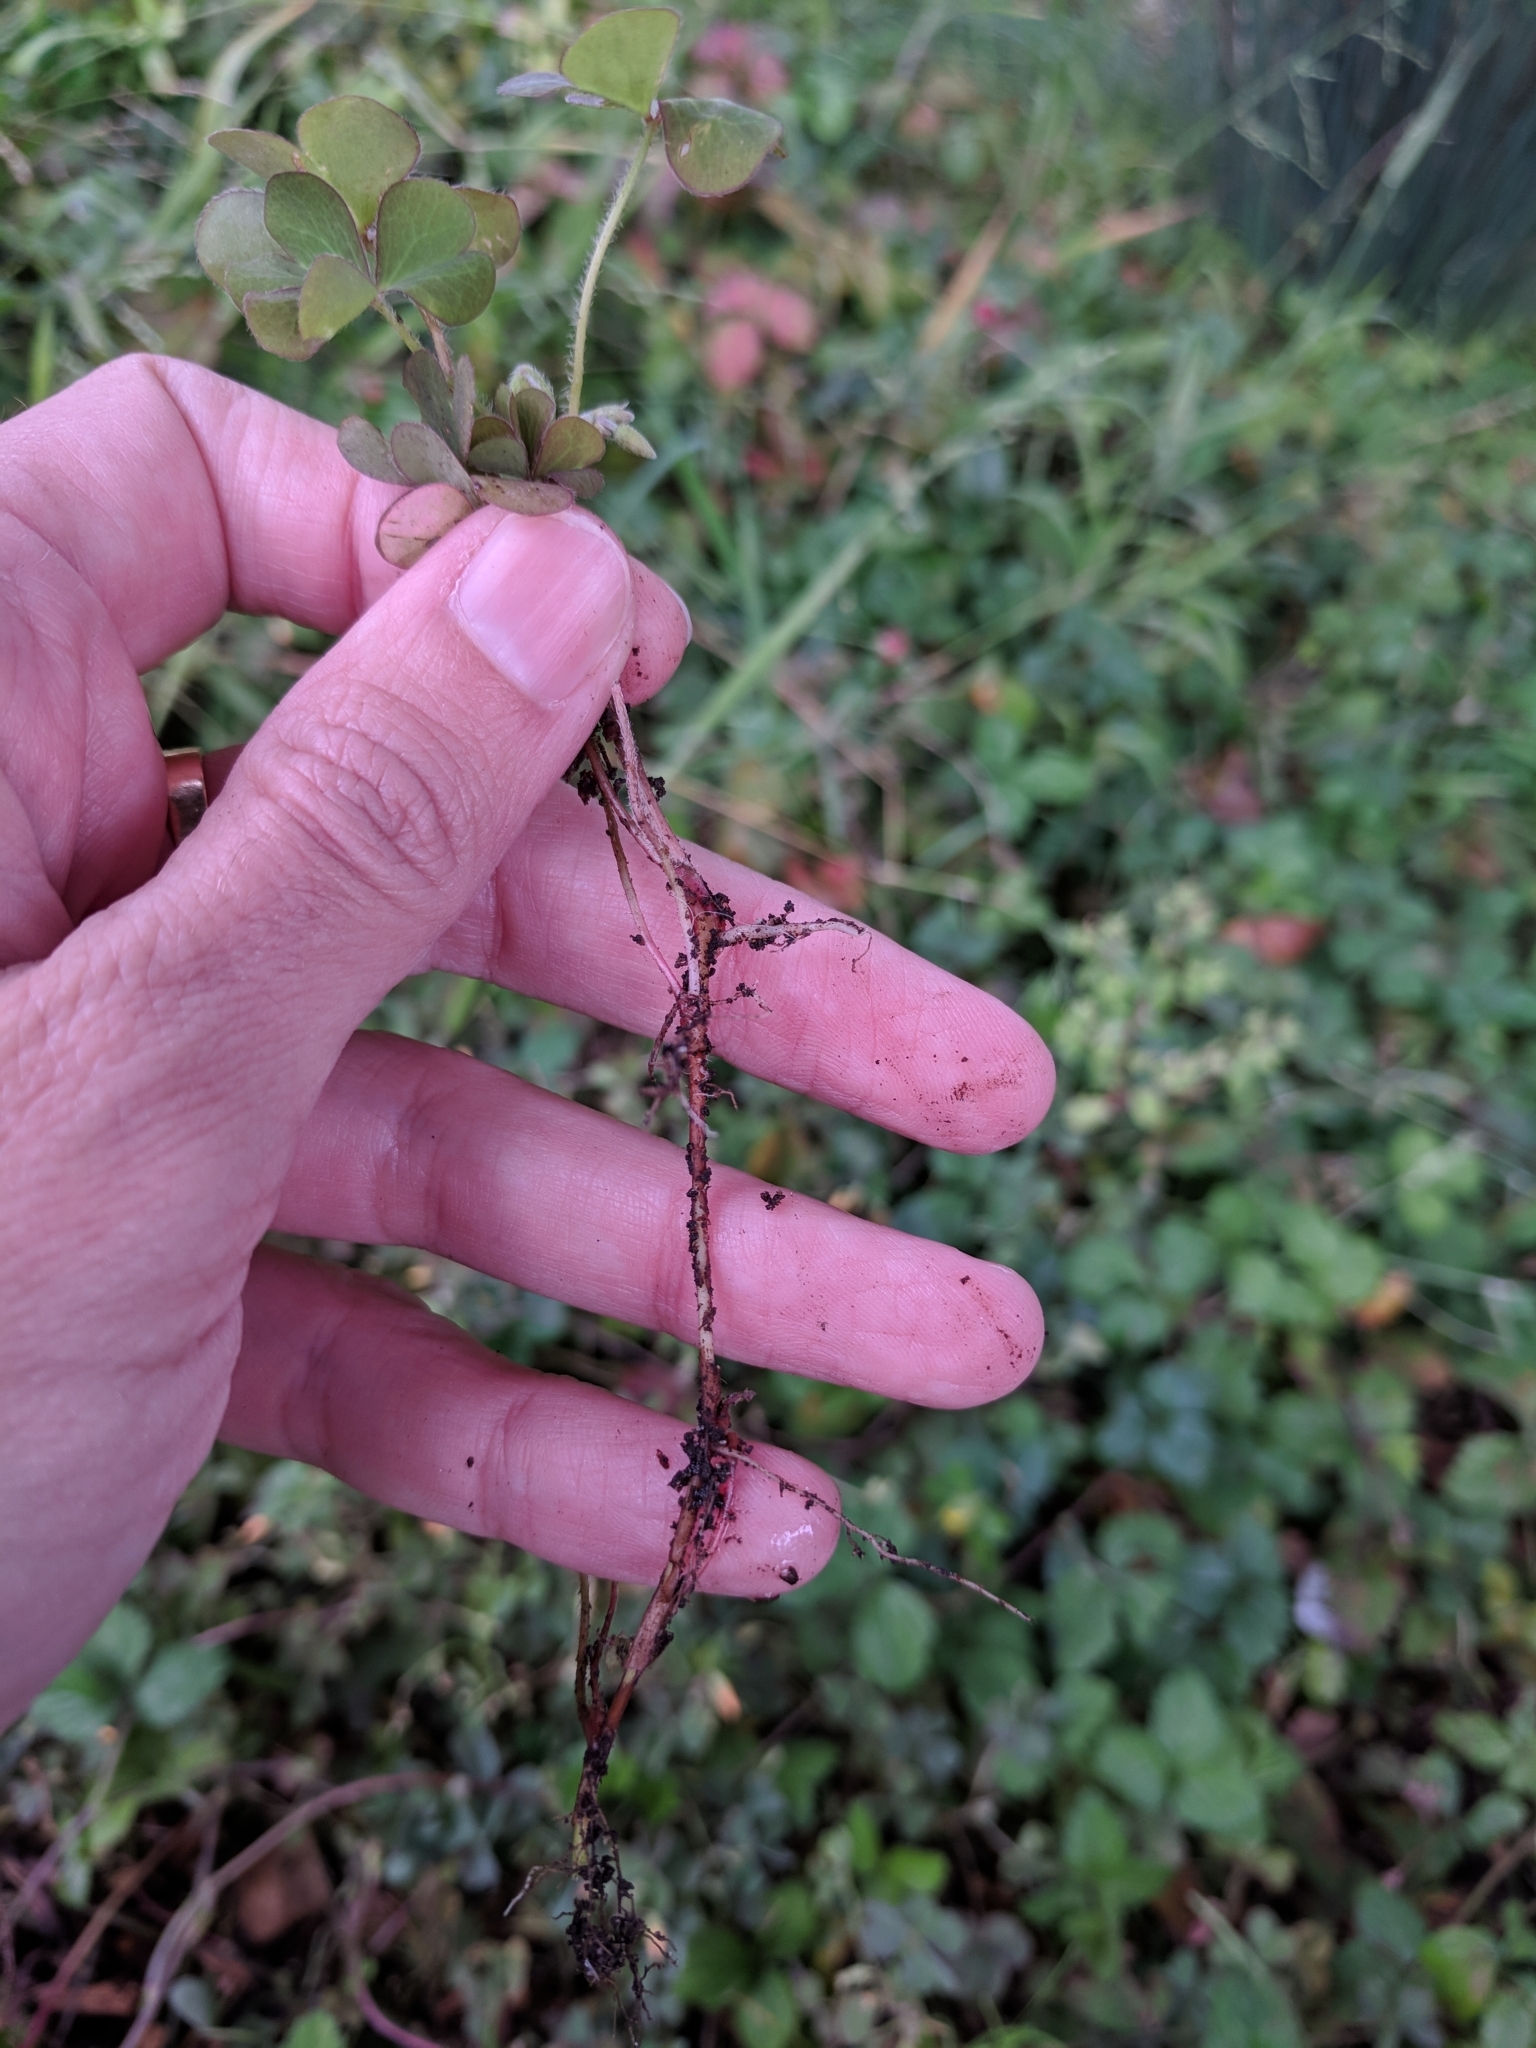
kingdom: Plantae
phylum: Tracheophyta
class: Magnoliopsida
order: Oxalidales
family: Oxalidaceae
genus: Oxalis
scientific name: Oxalis corniculata
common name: Procumbent yellow-sorrel
